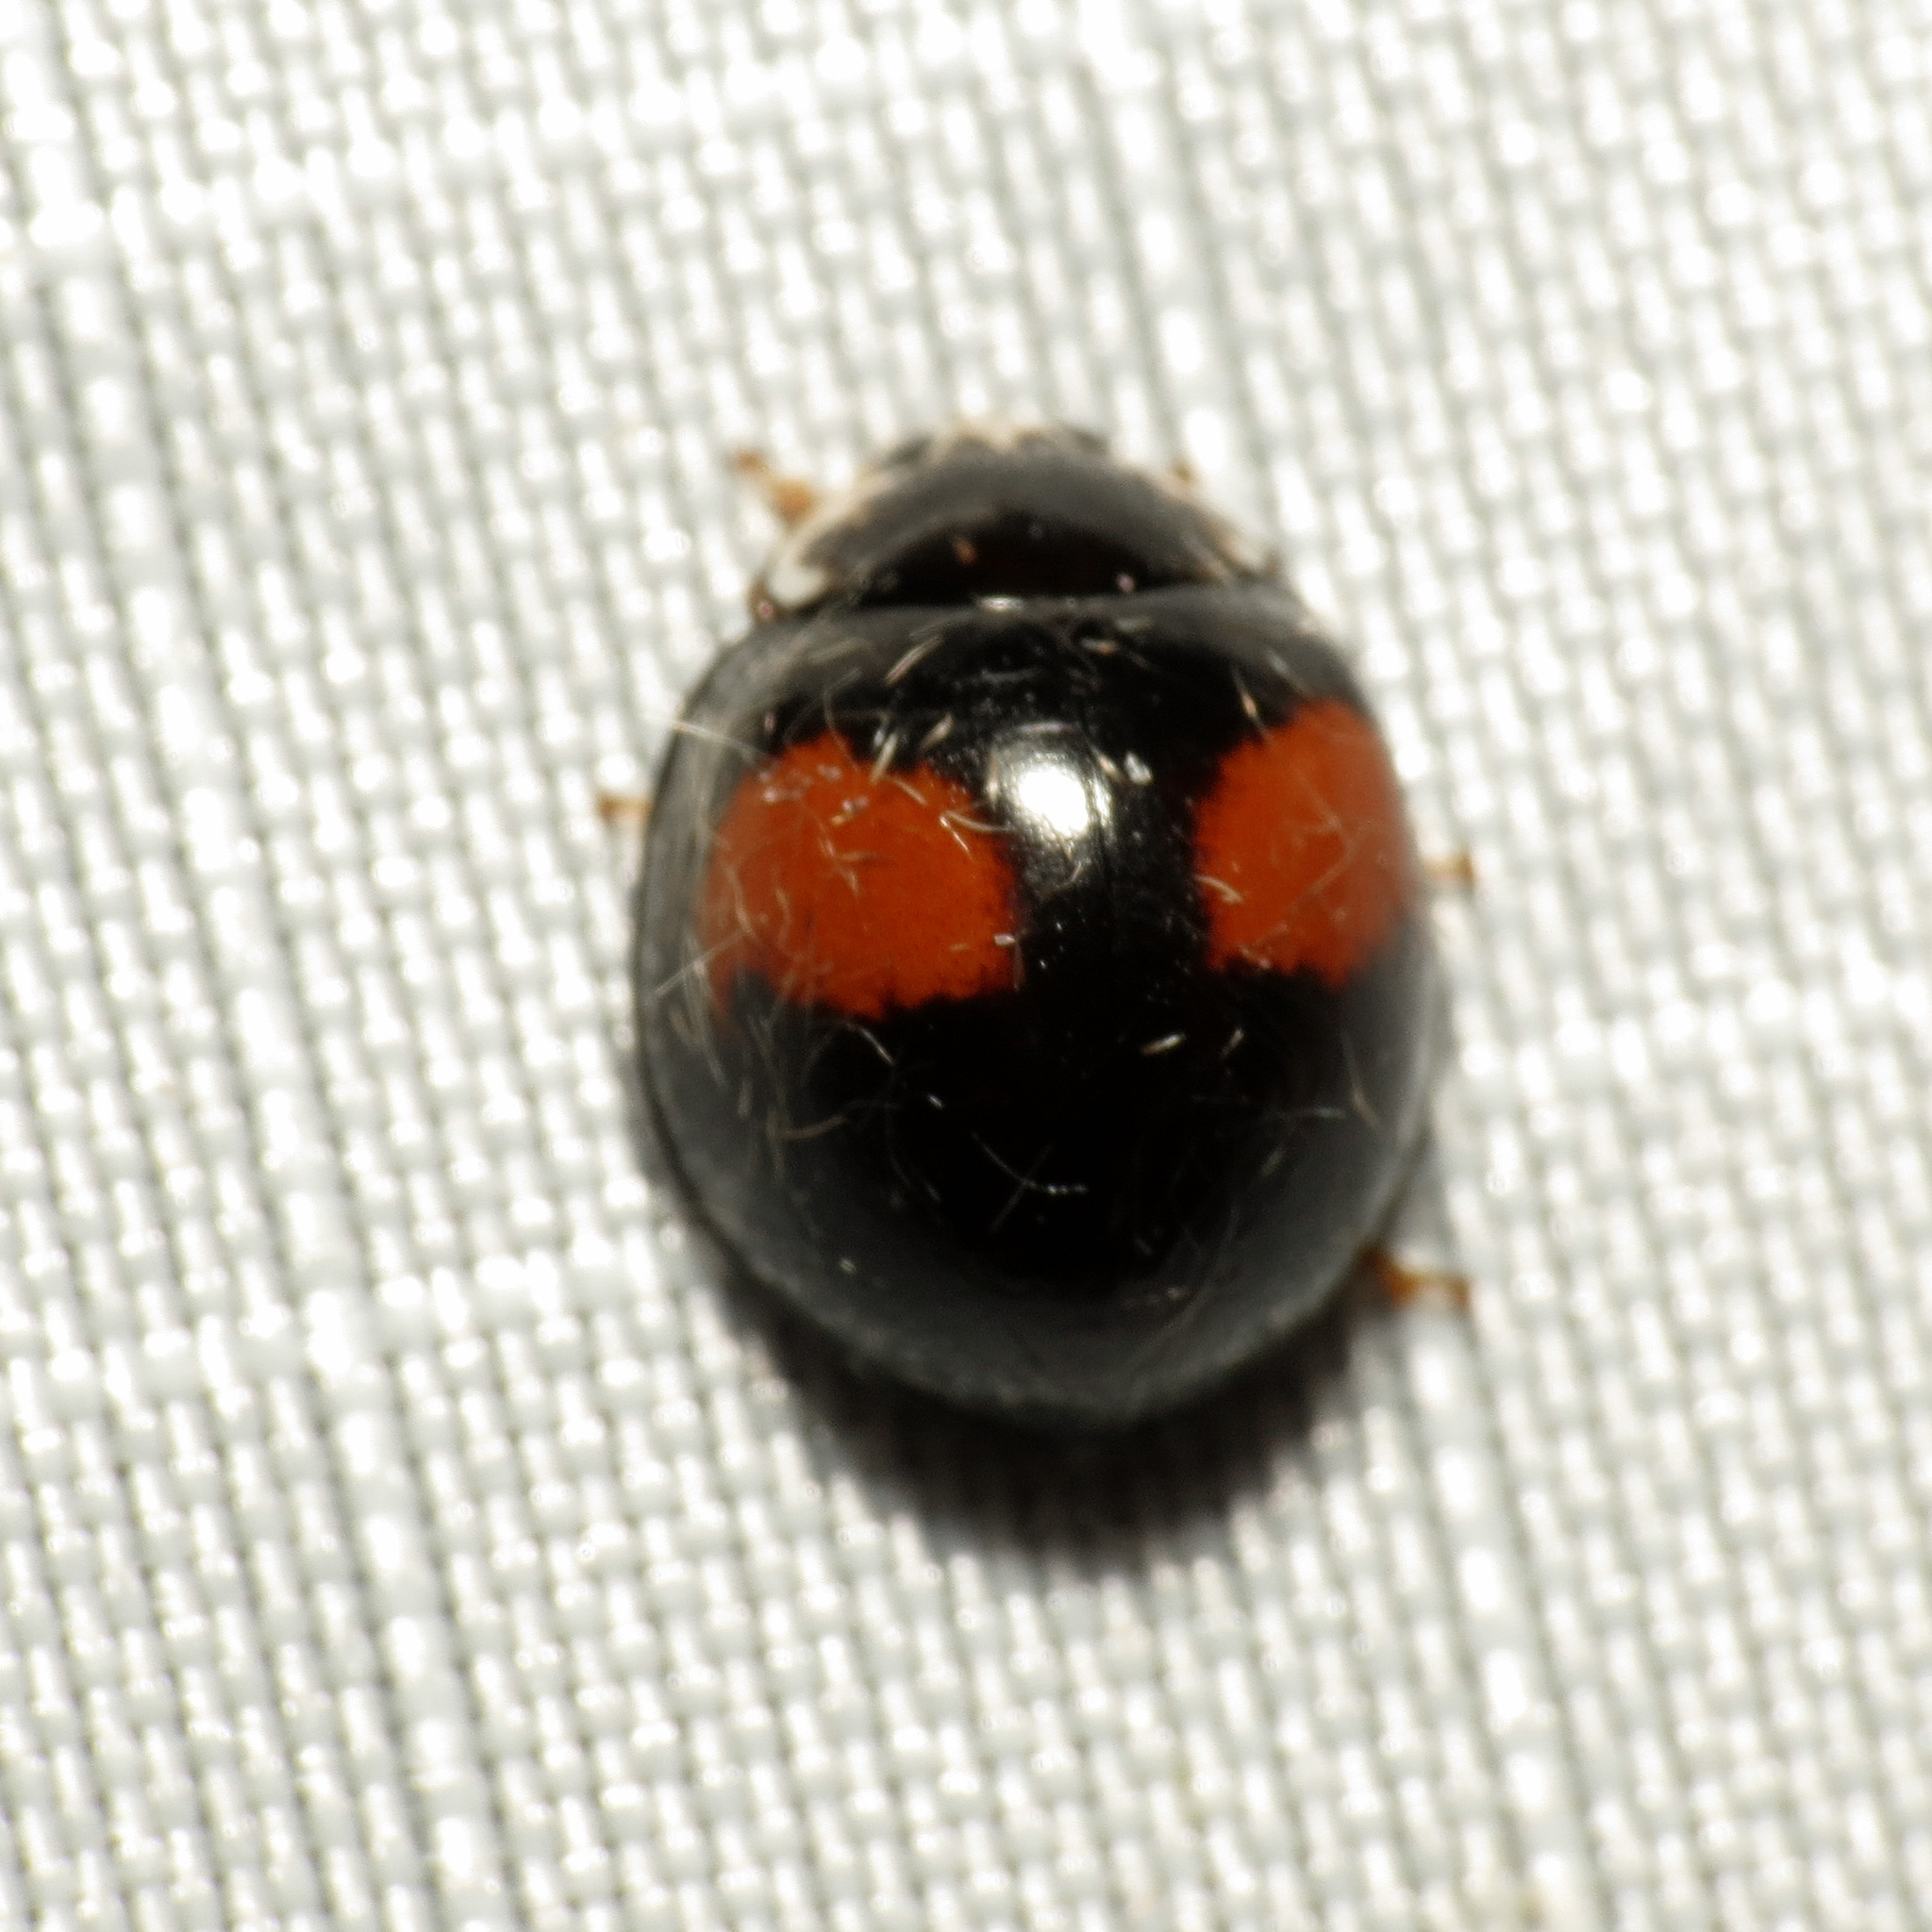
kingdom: Animalia
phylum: Arthropoda
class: Insecta
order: Coleoptera
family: Coccinellidae
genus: Olla
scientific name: Olla v-nigrum
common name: Ashy gray lady beetle
